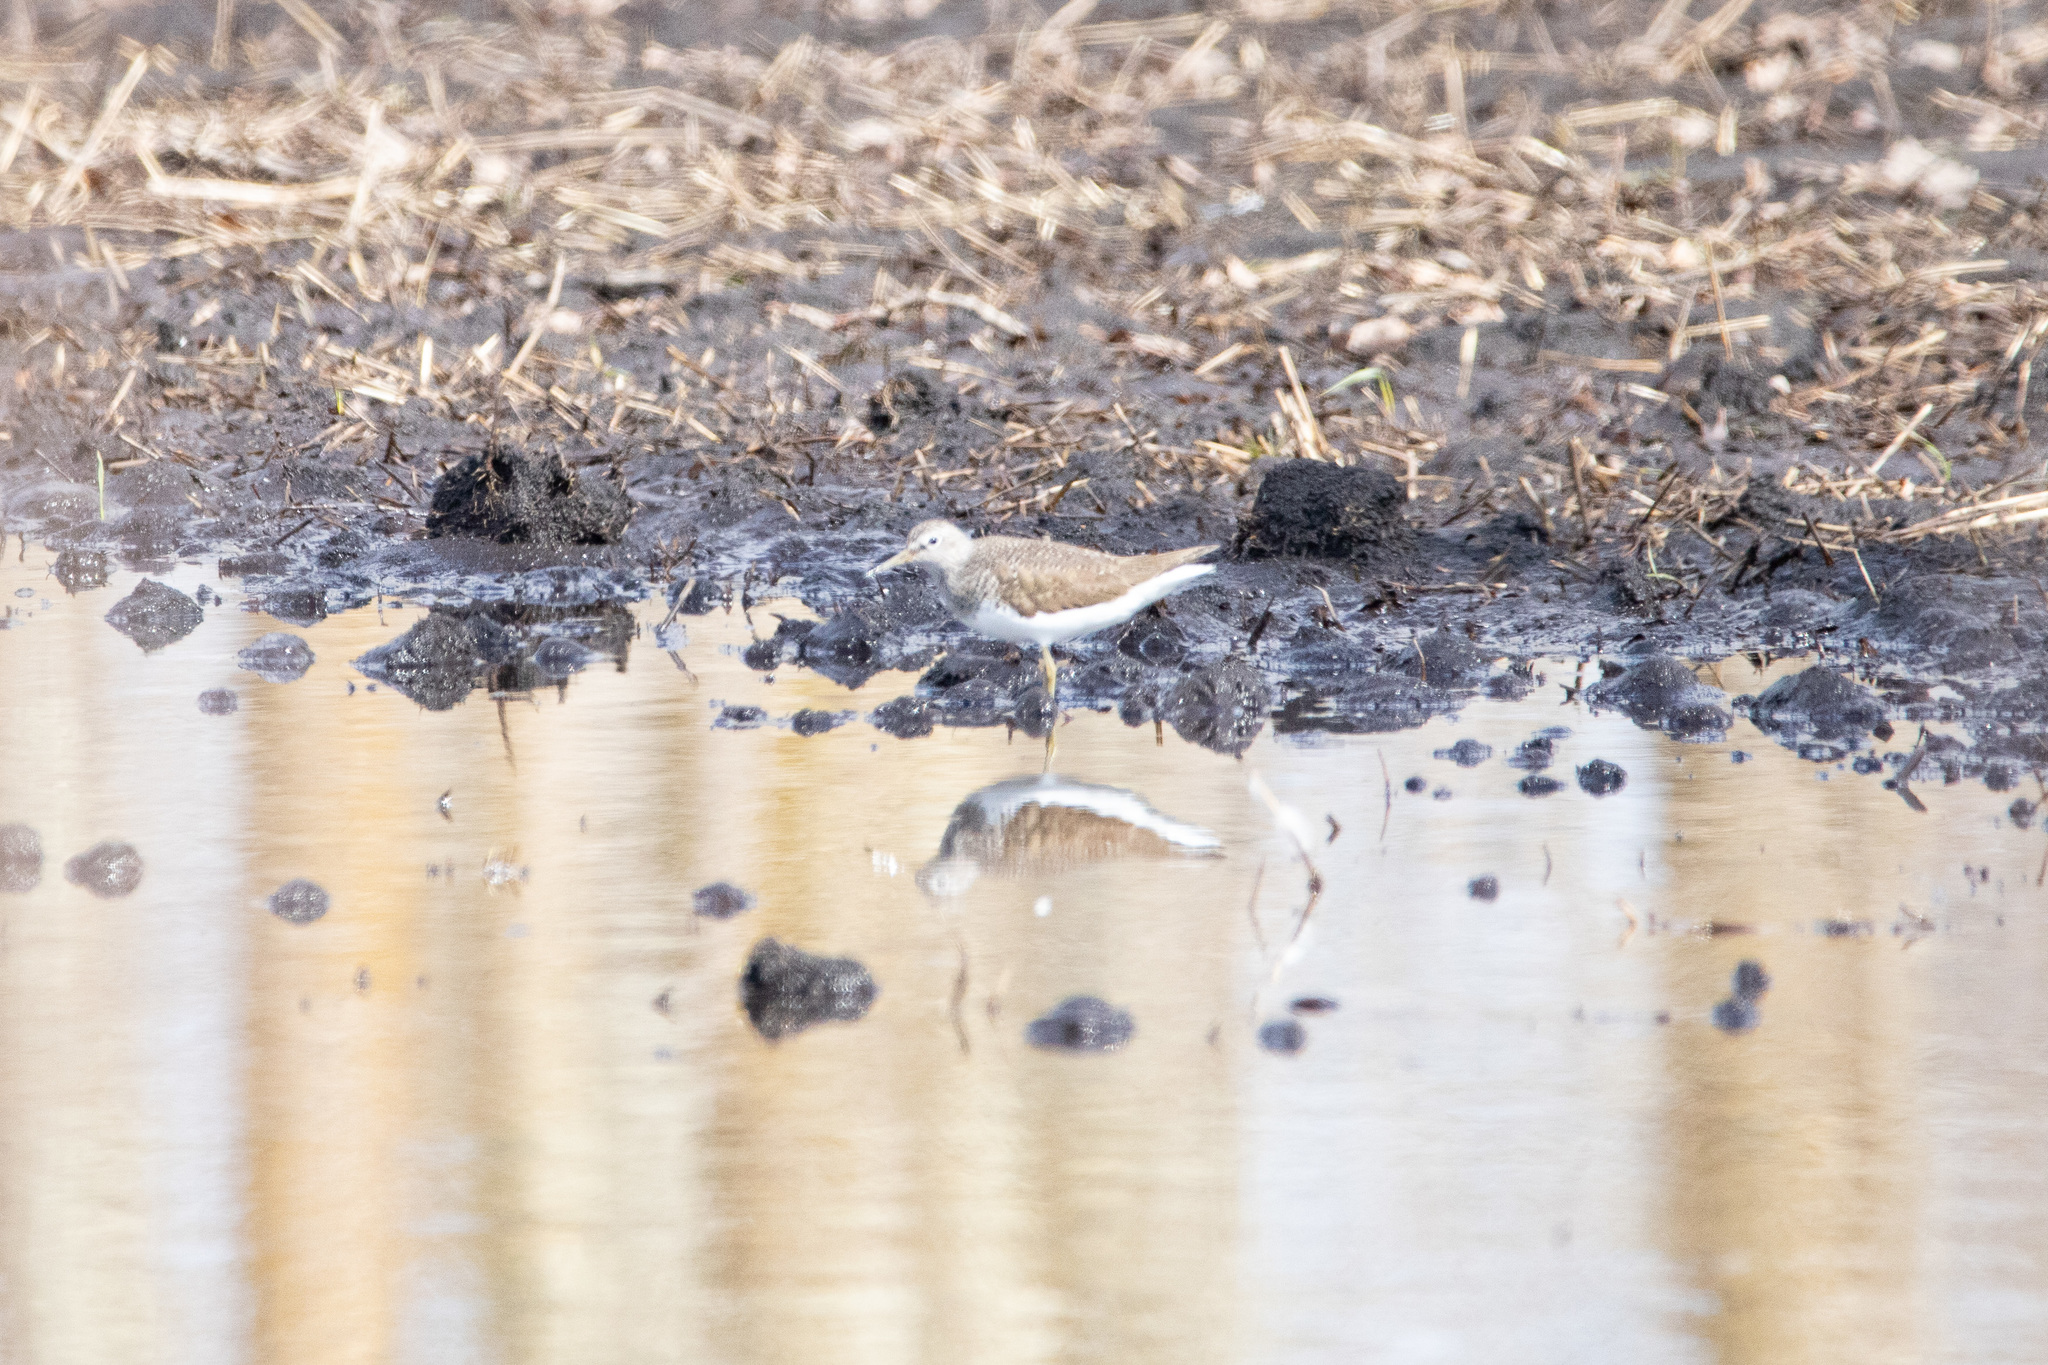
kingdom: Animalia
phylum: Chordata
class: Aves
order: Charadriiformes
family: Scolopacidae
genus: Tringa
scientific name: Tringa ochropus
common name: Green sandpiper
